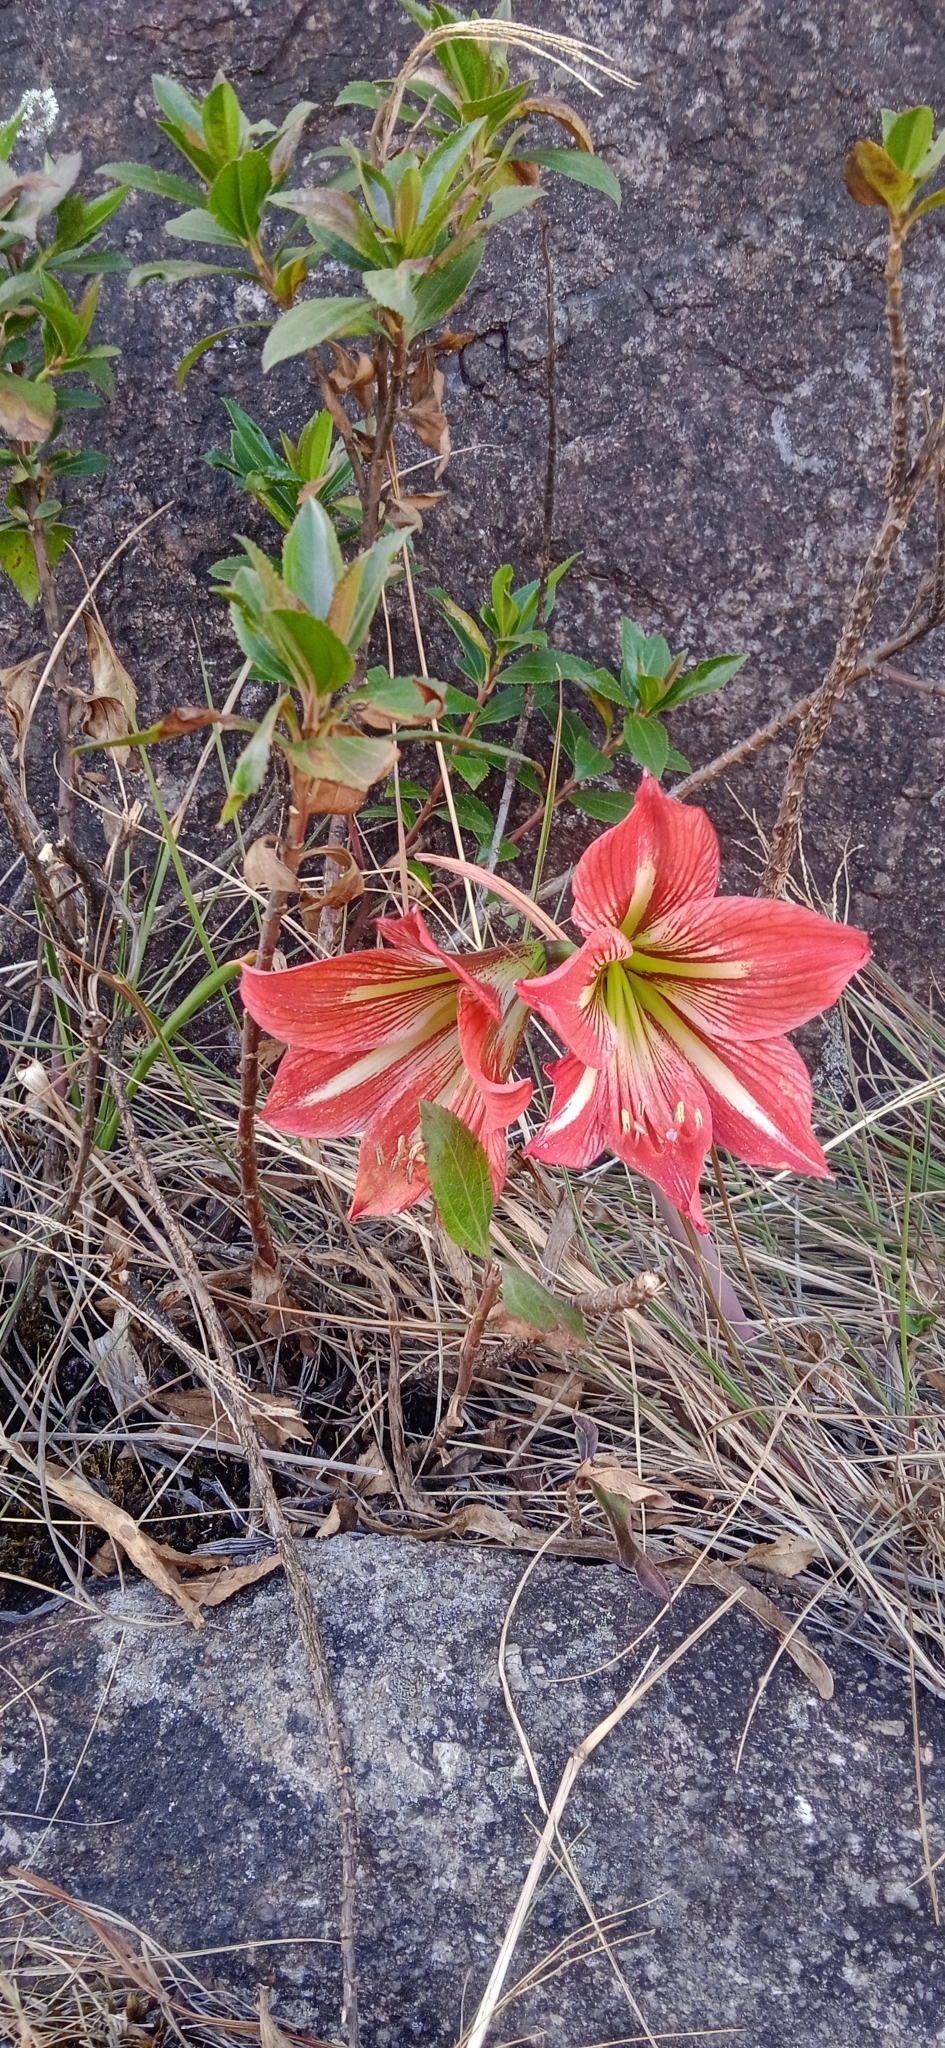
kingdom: Plantae
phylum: Tracheophyta
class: Liliopsida
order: Asparagales
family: Amaryllidaceae
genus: Hippeastrum
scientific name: Hippeastrum morelianum
